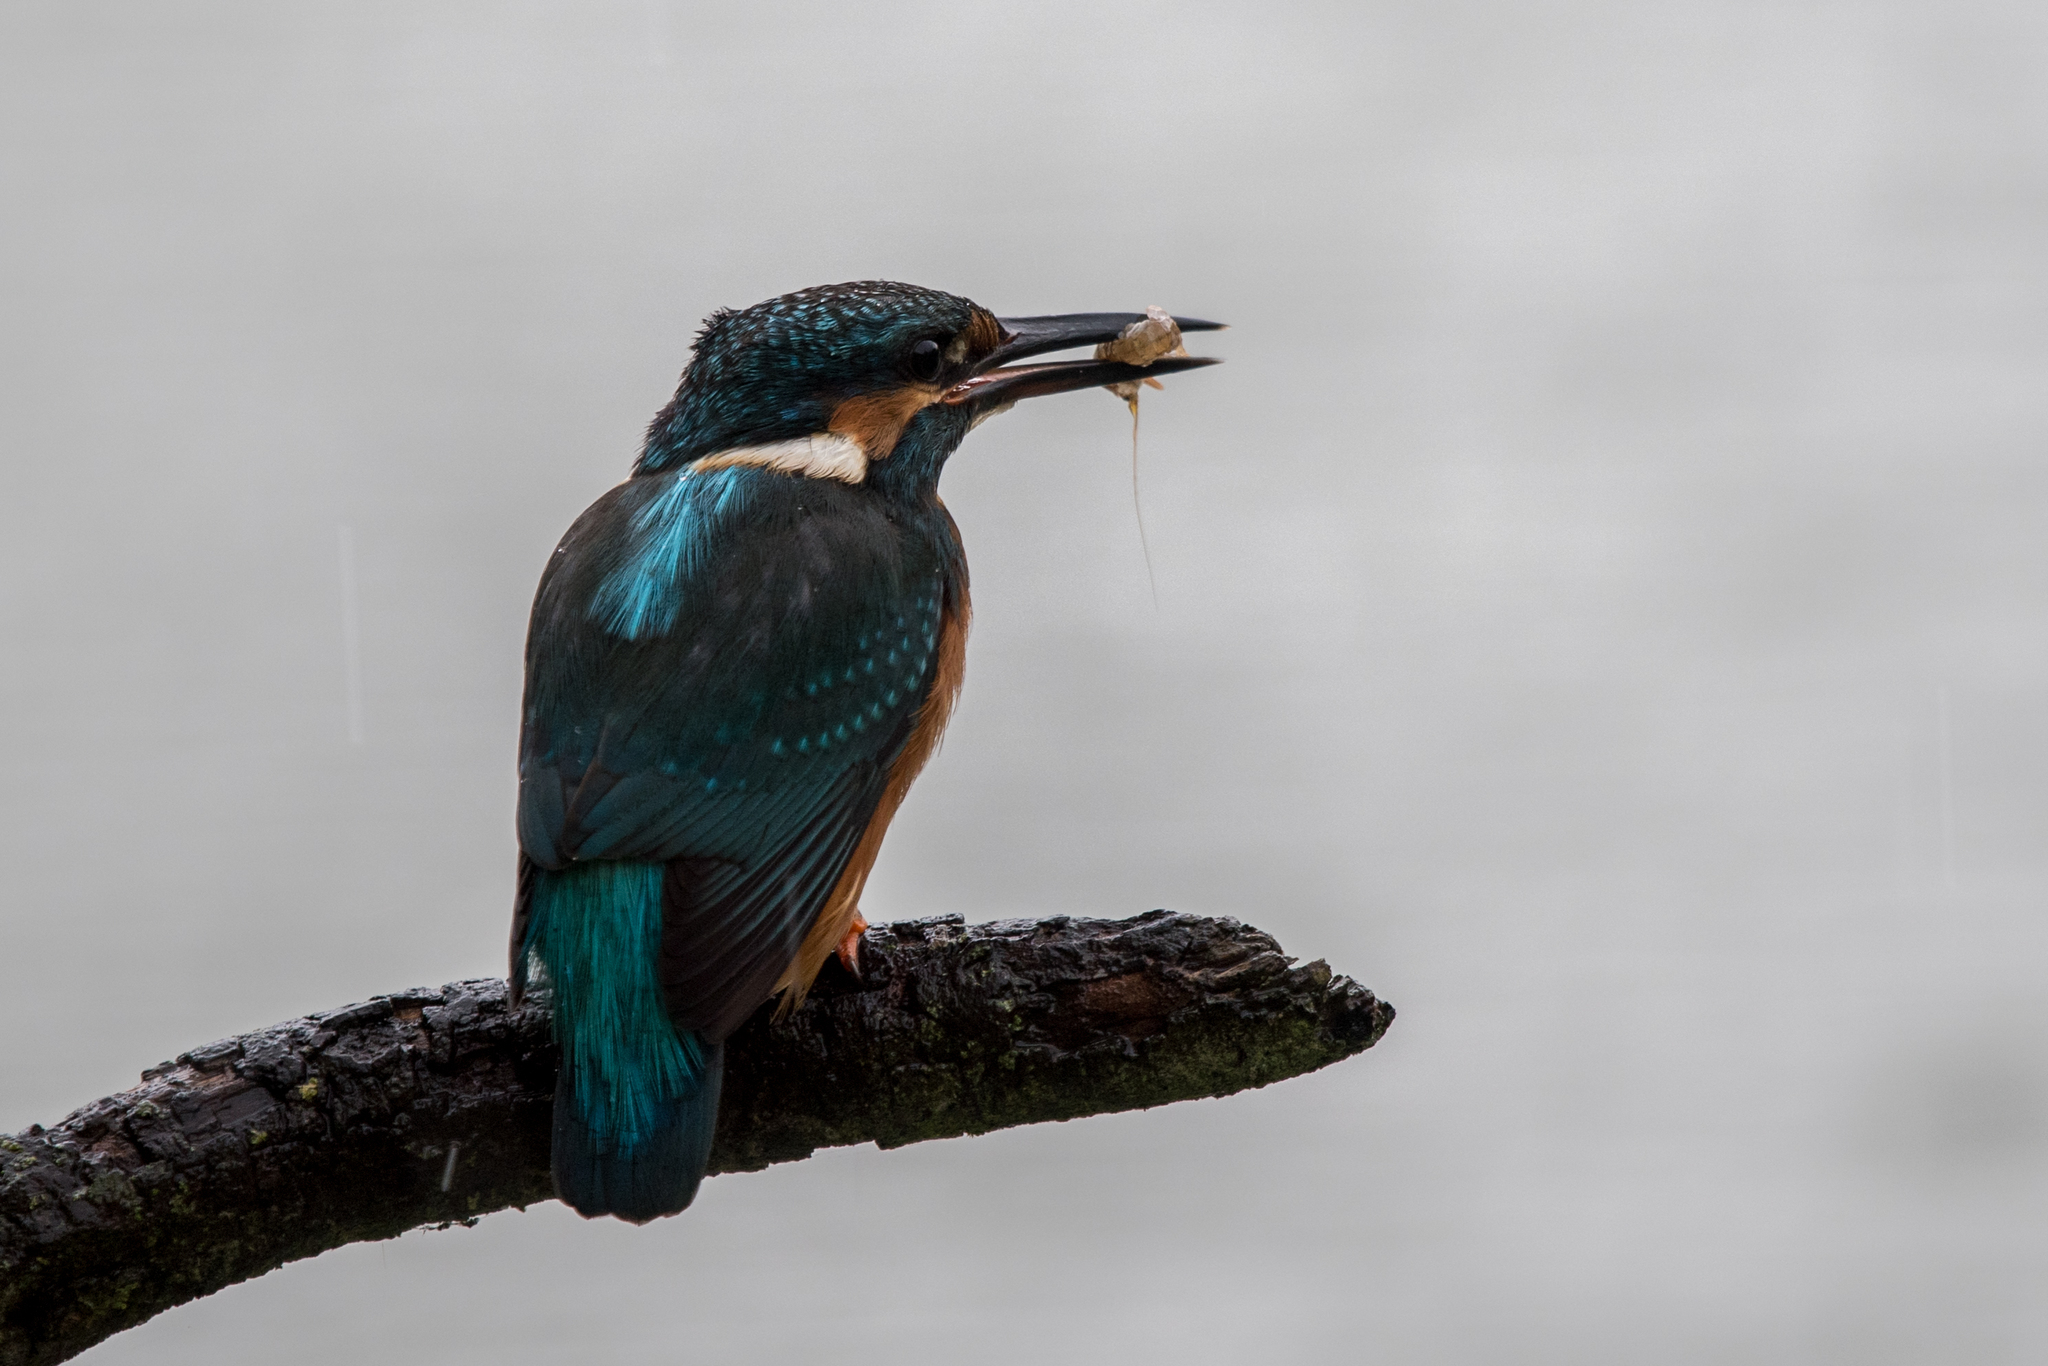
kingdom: Animalia
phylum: Chordata
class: Aves
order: Coraciiformes
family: Alcedinidae
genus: Alcedo
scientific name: Alcedo atthis
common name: Common kingfisher
